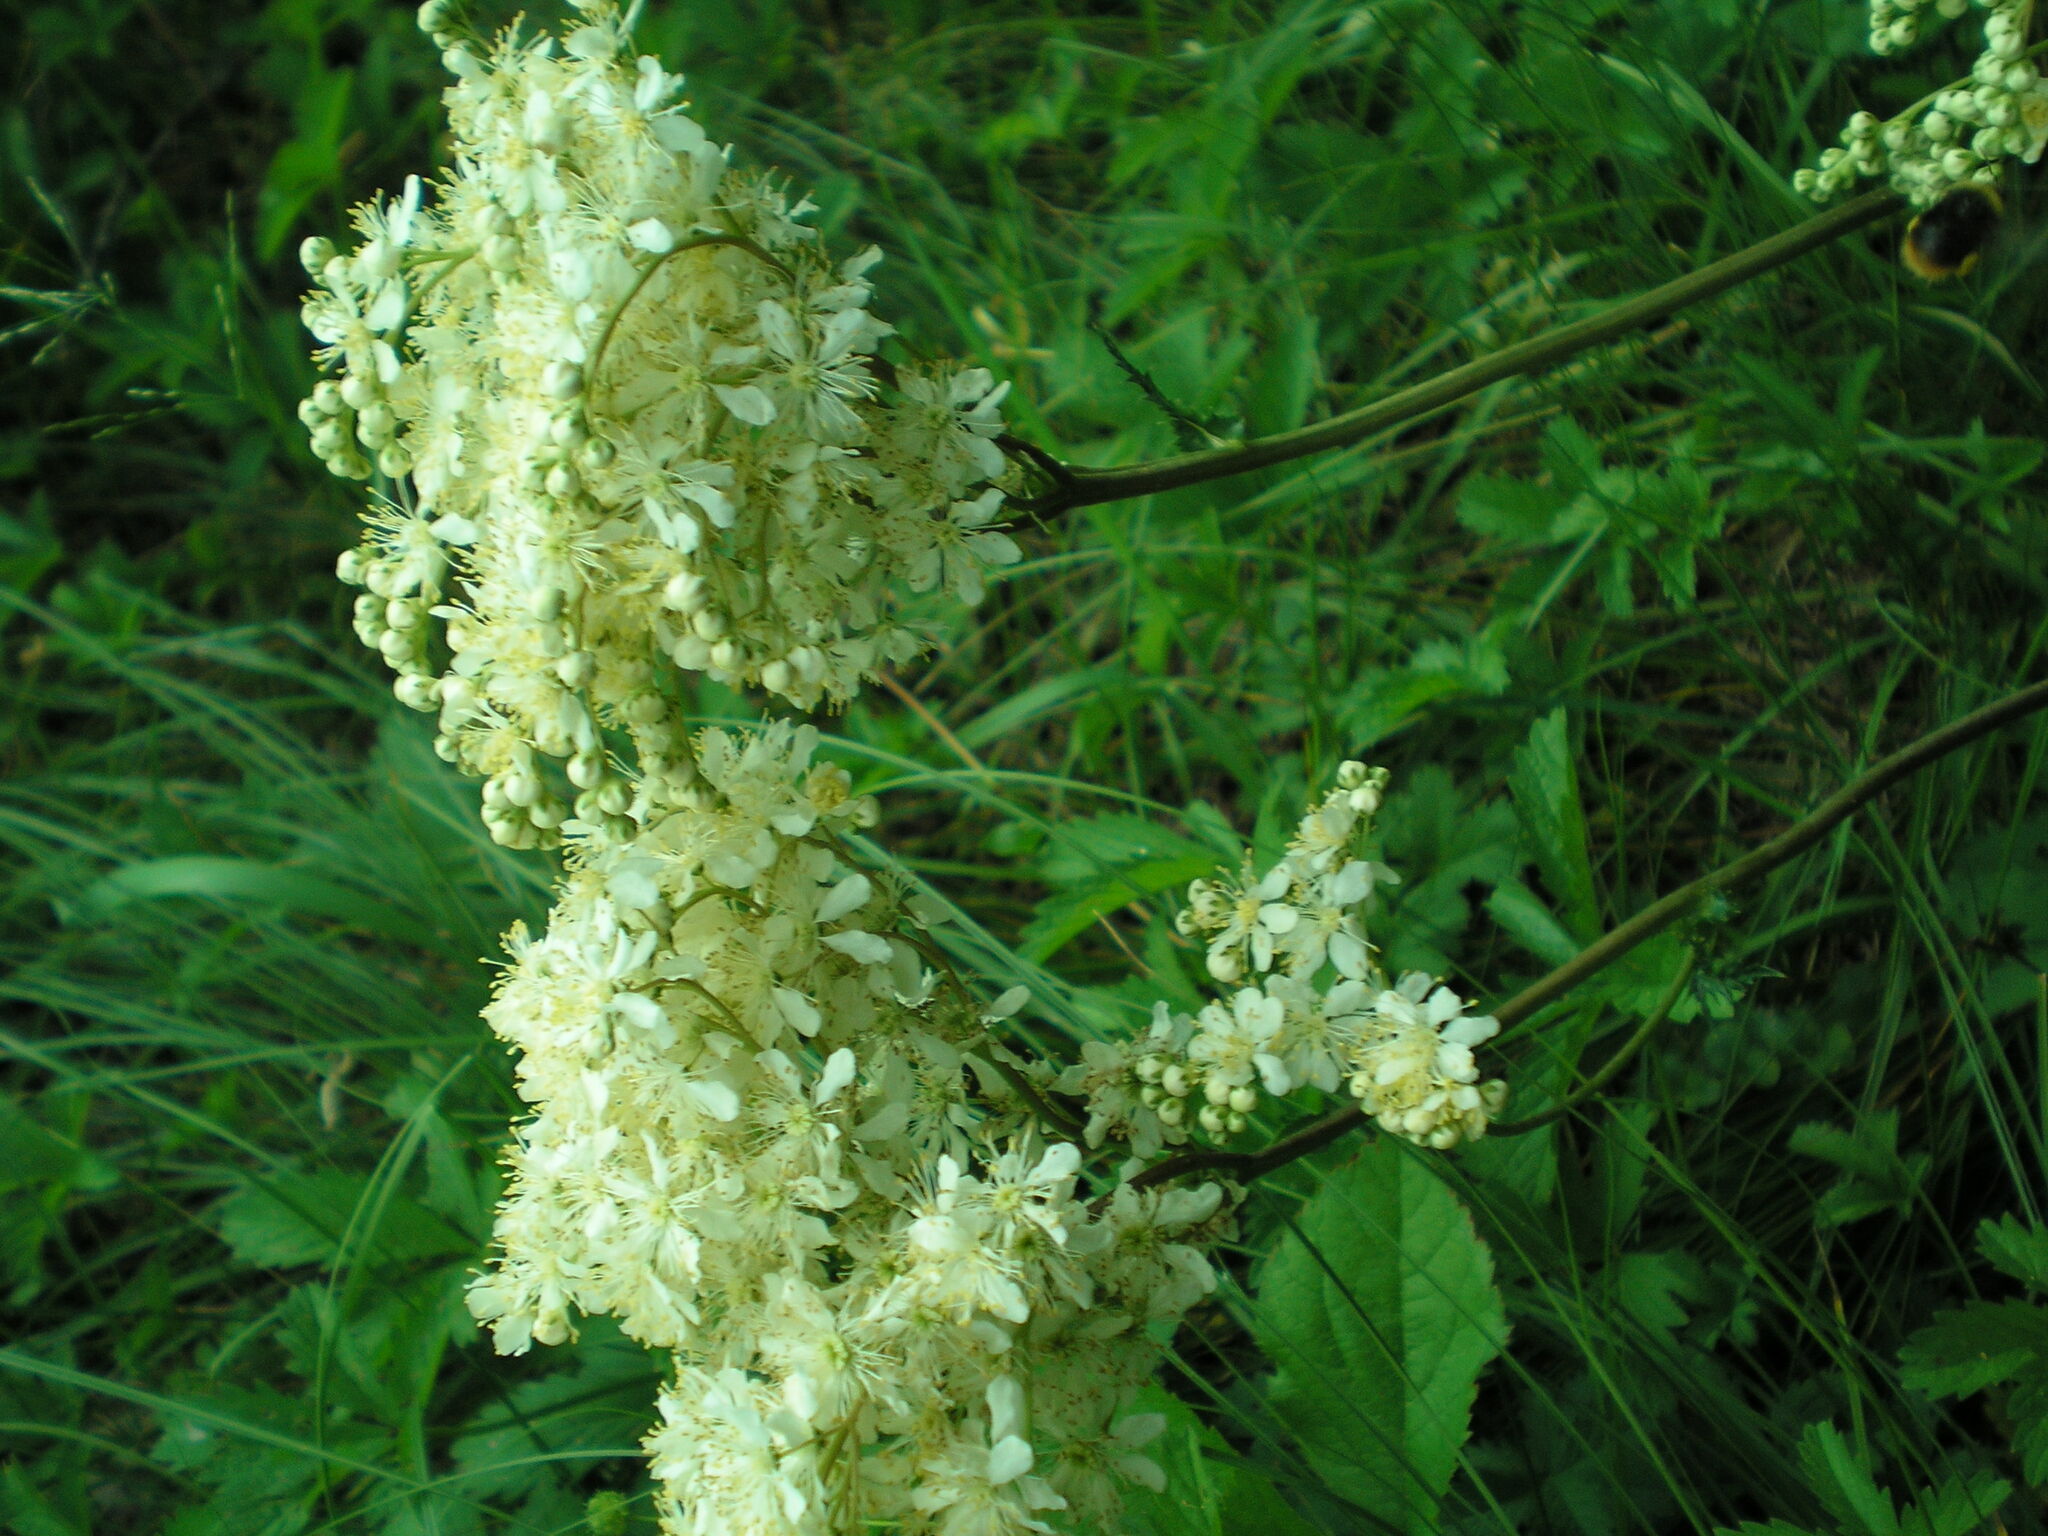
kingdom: Animalia
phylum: Arthropoda
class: Insecta
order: Hymenoptera
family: Apidae
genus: Bombus
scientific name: Bombus pratorum
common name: Early humble-bee
